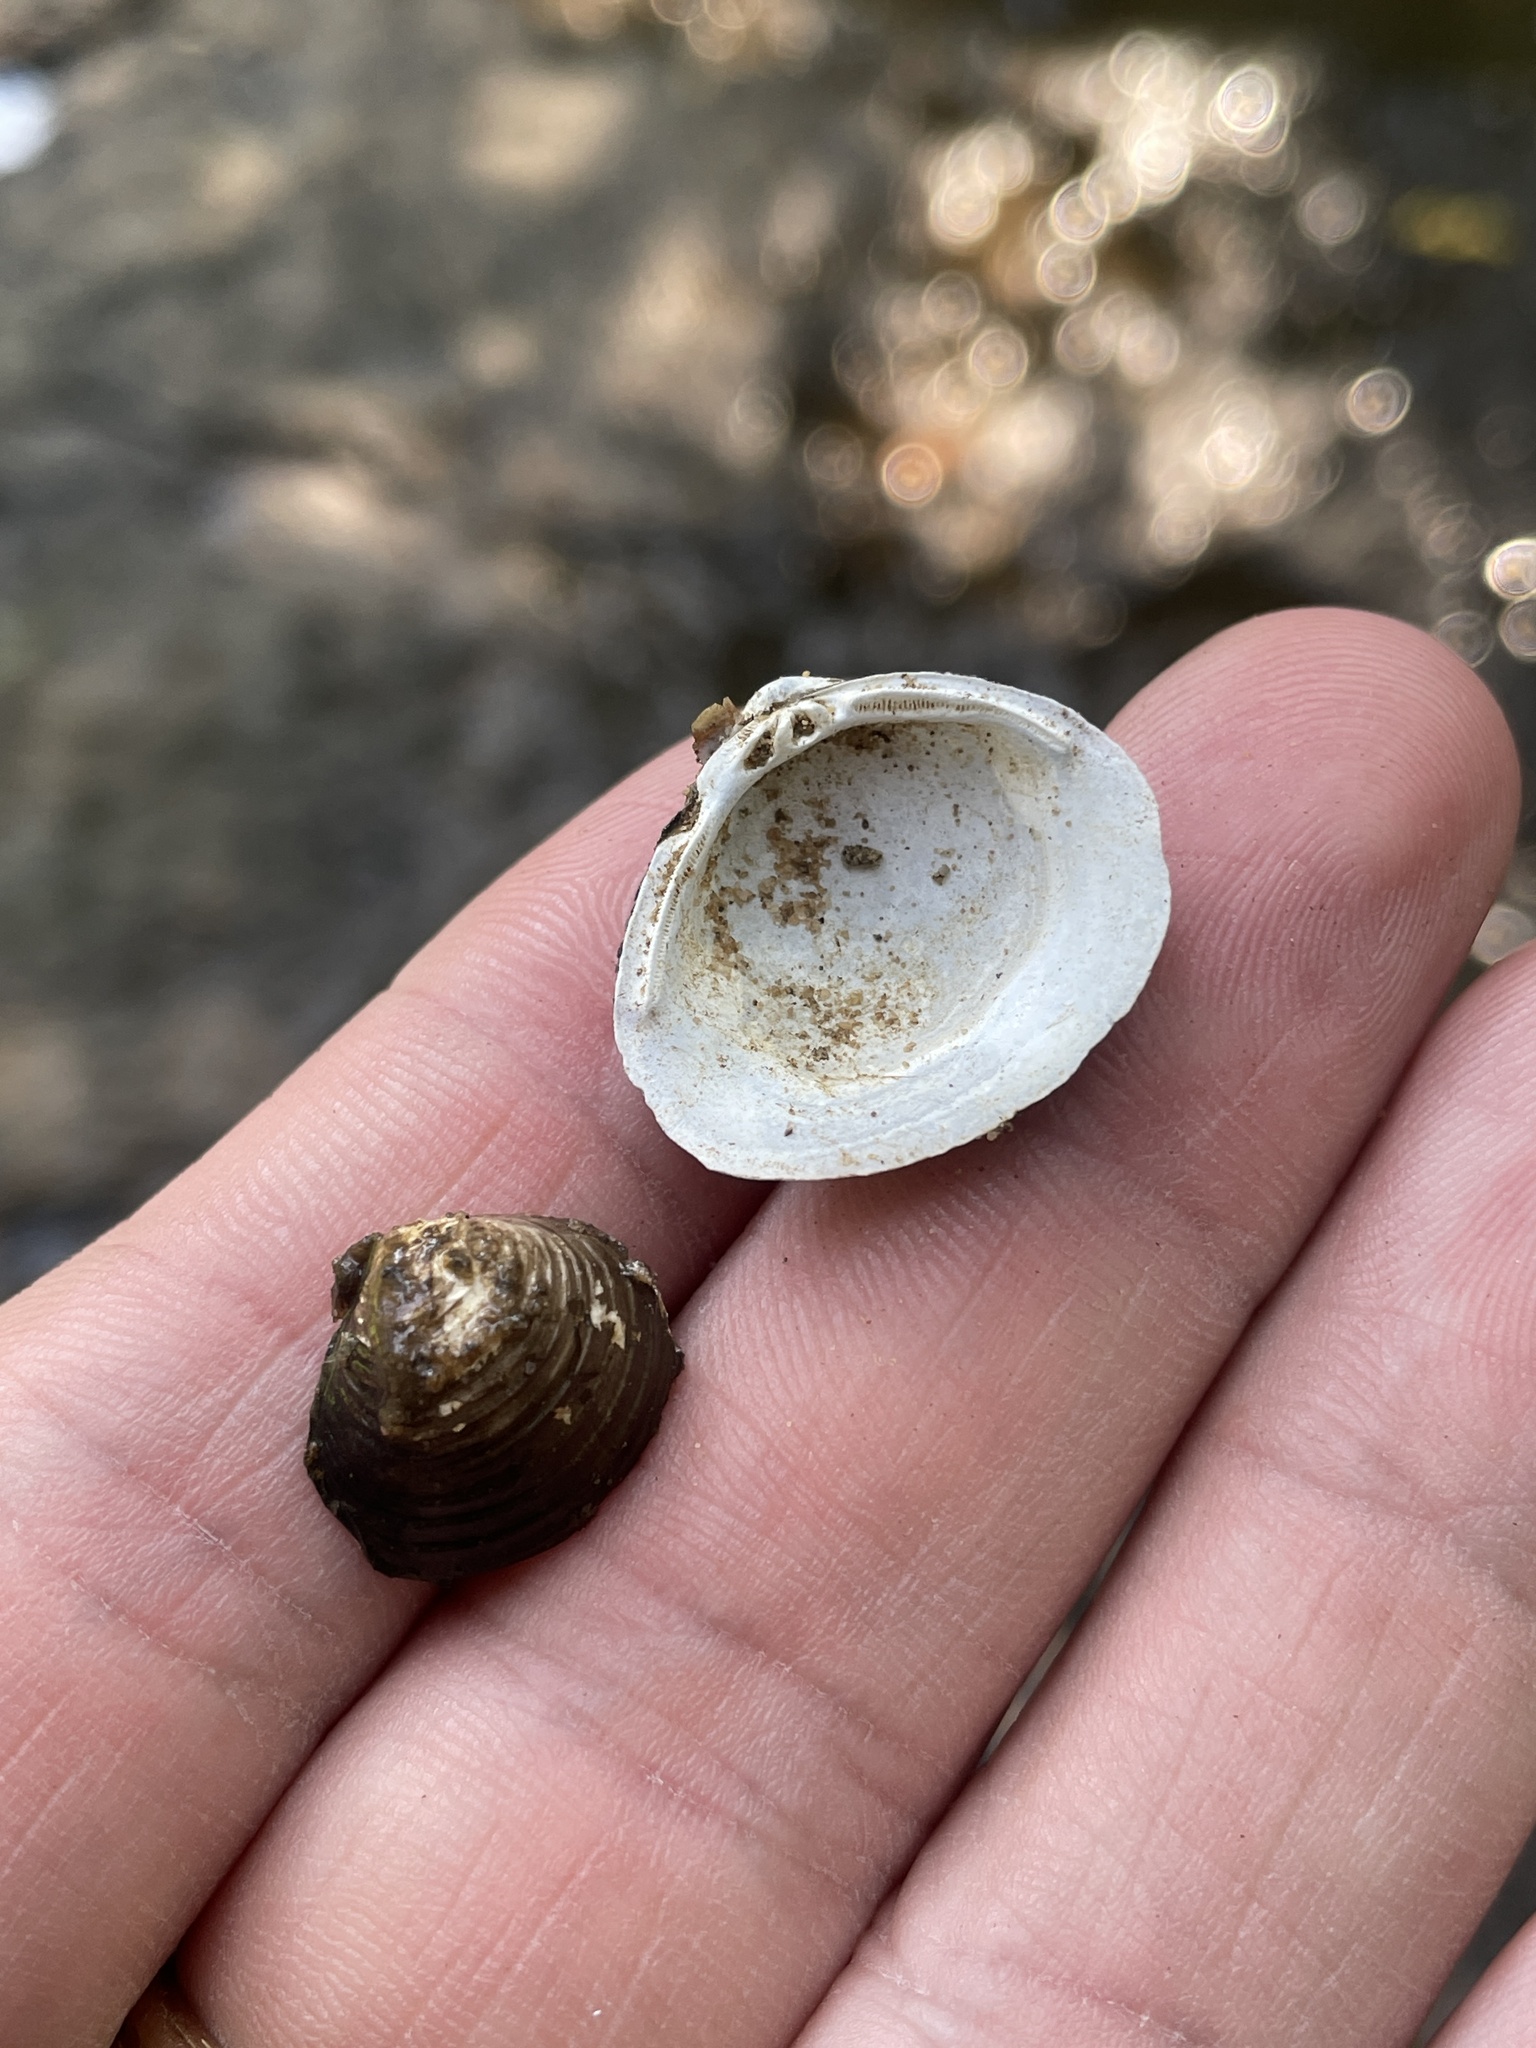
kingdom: Animalia
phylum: Mollusca
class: Bivalvia
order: Venerida
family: Cyrenidae
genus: Corbicula
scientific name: Corbicula fluminea
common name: Asian clam
